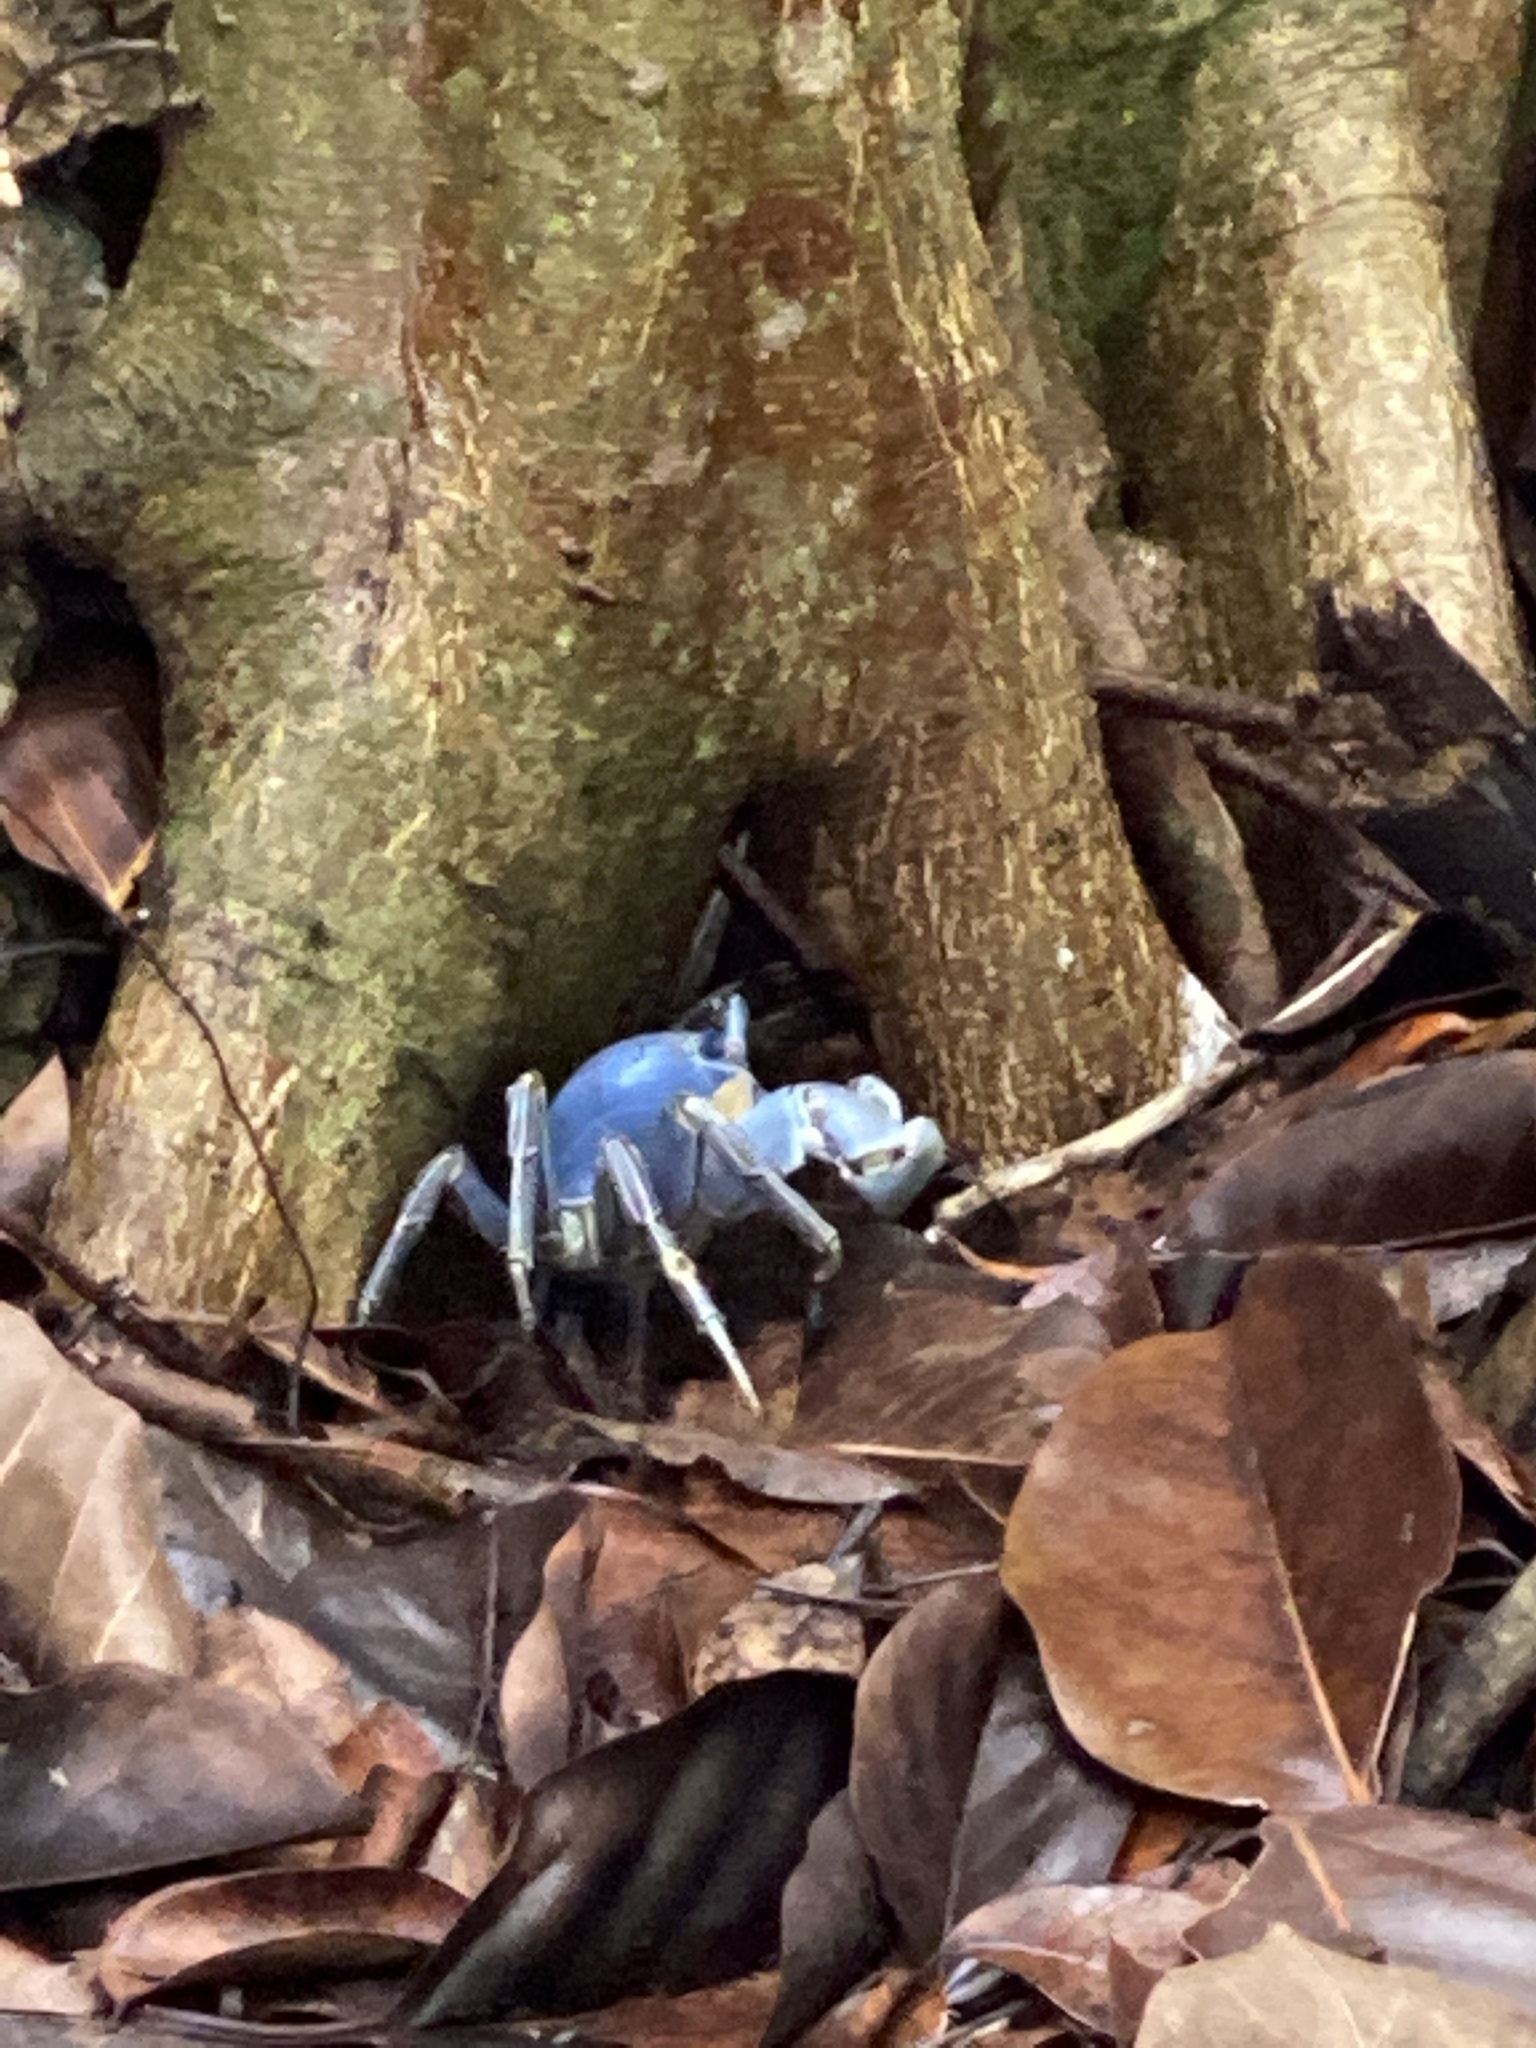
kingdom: Animalia
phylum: Arthropoda
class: Malacostraca
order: Decapoda
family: Gecarcinidae
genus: Cardisoma
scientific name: Cardisoma guanhumi
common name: Great land crab
